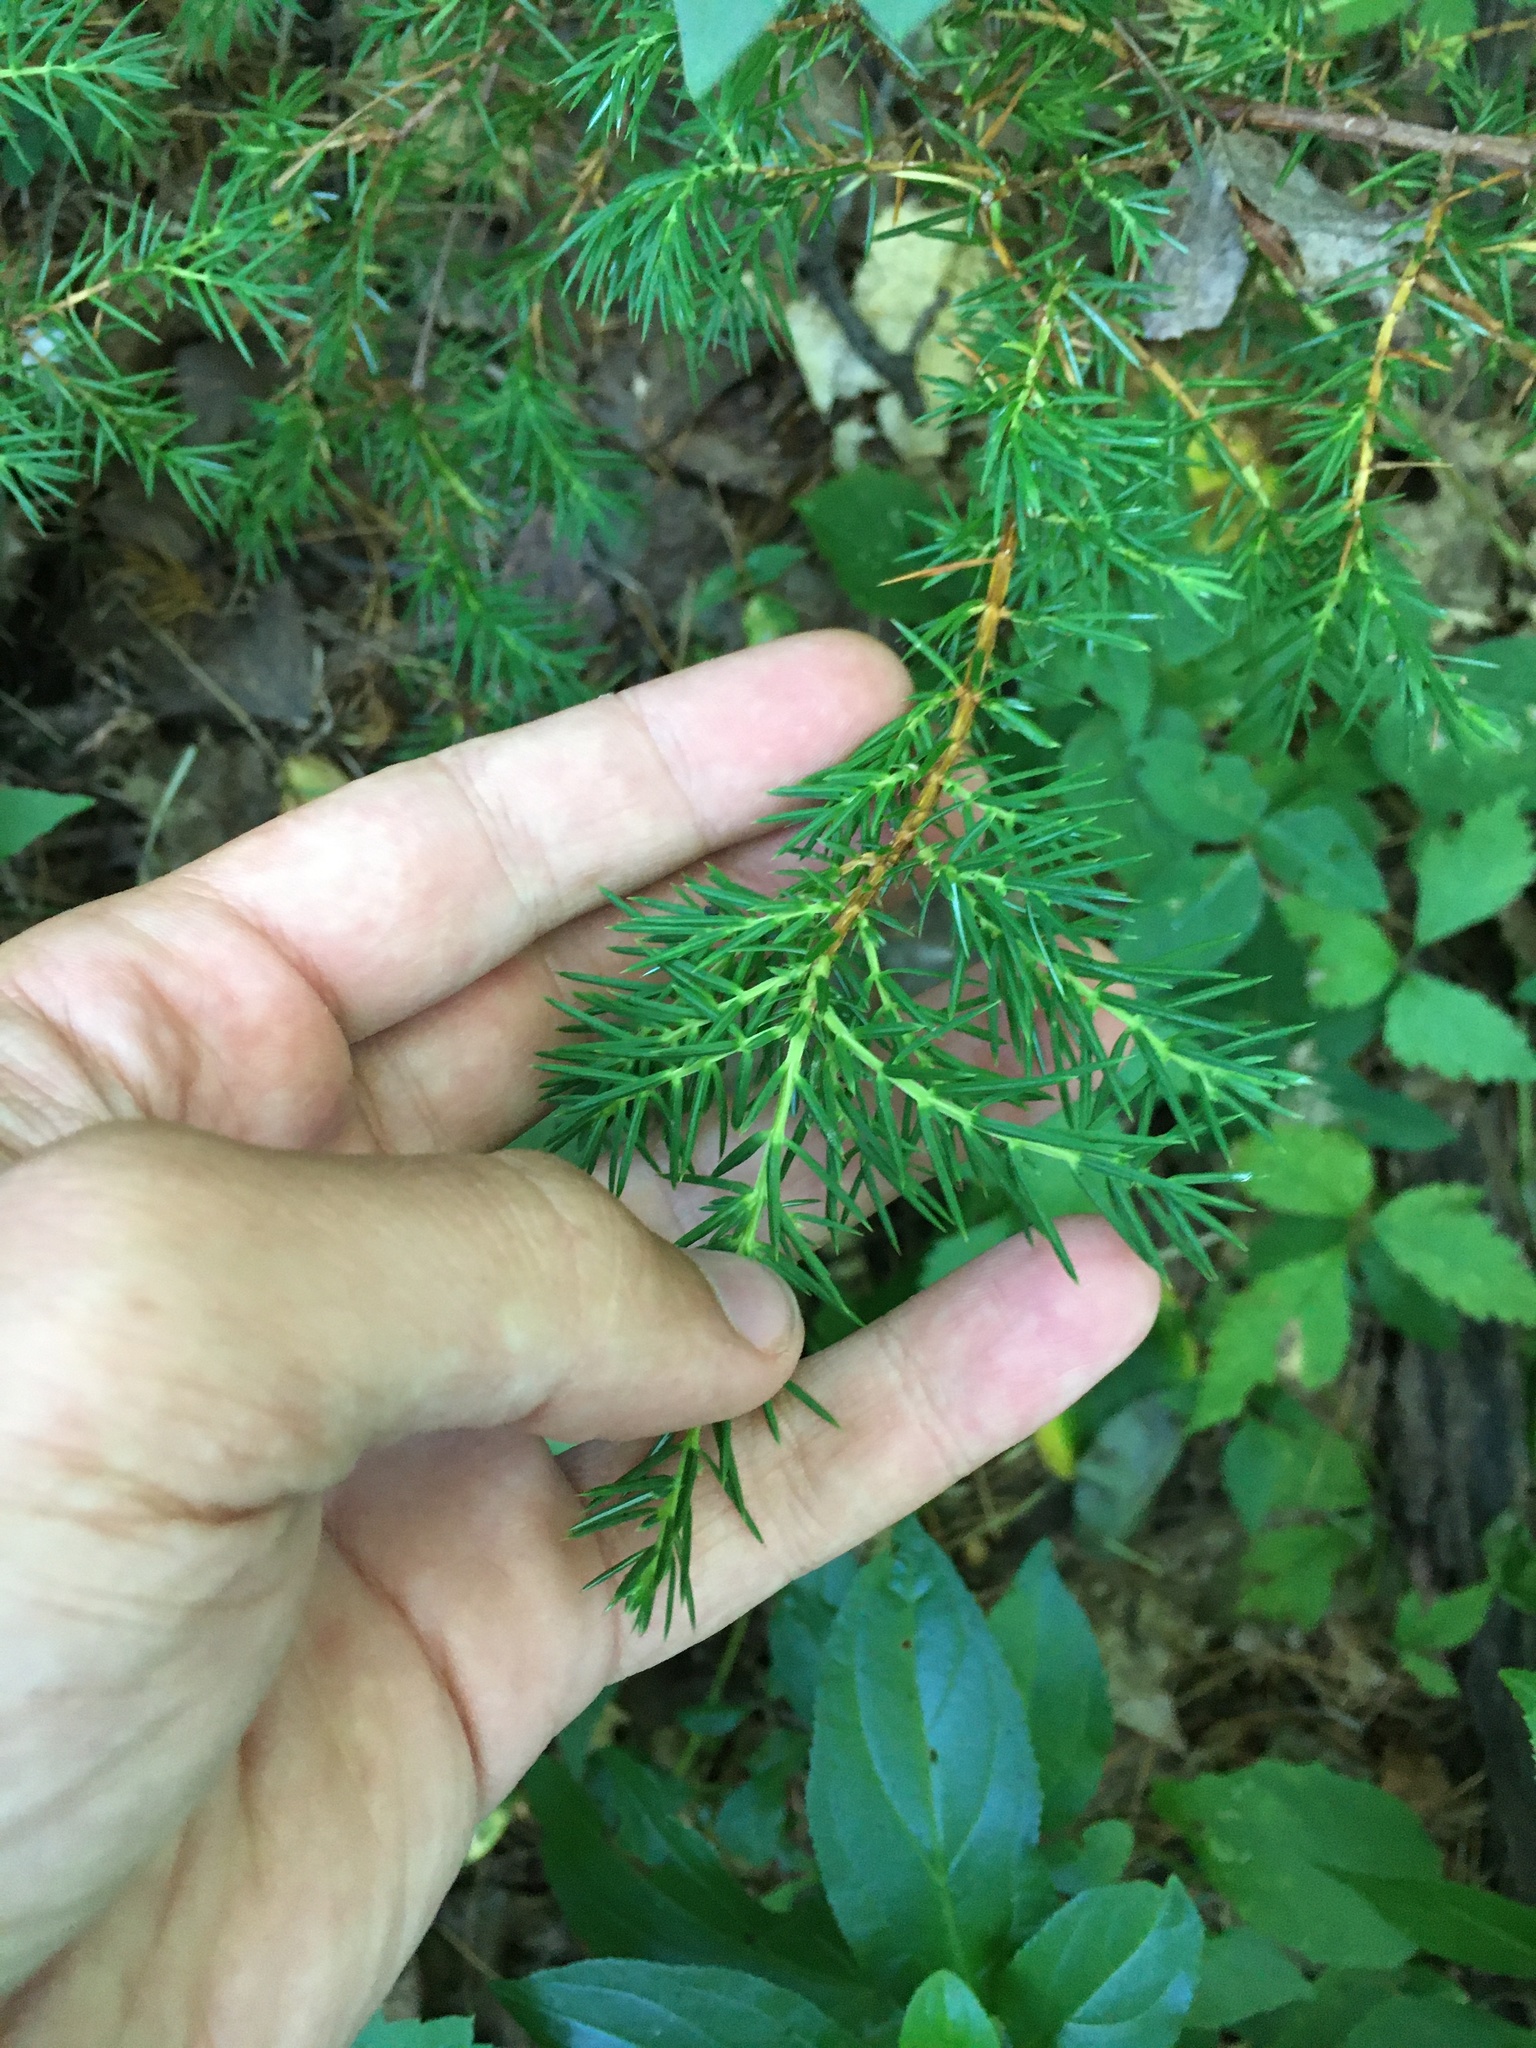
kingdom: Plantae
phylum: Tracheophyta
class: Pinopsida
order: Pinales
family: Cupressaceae
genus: Juniperus
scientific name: Juniperus communis
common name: Common juniper
